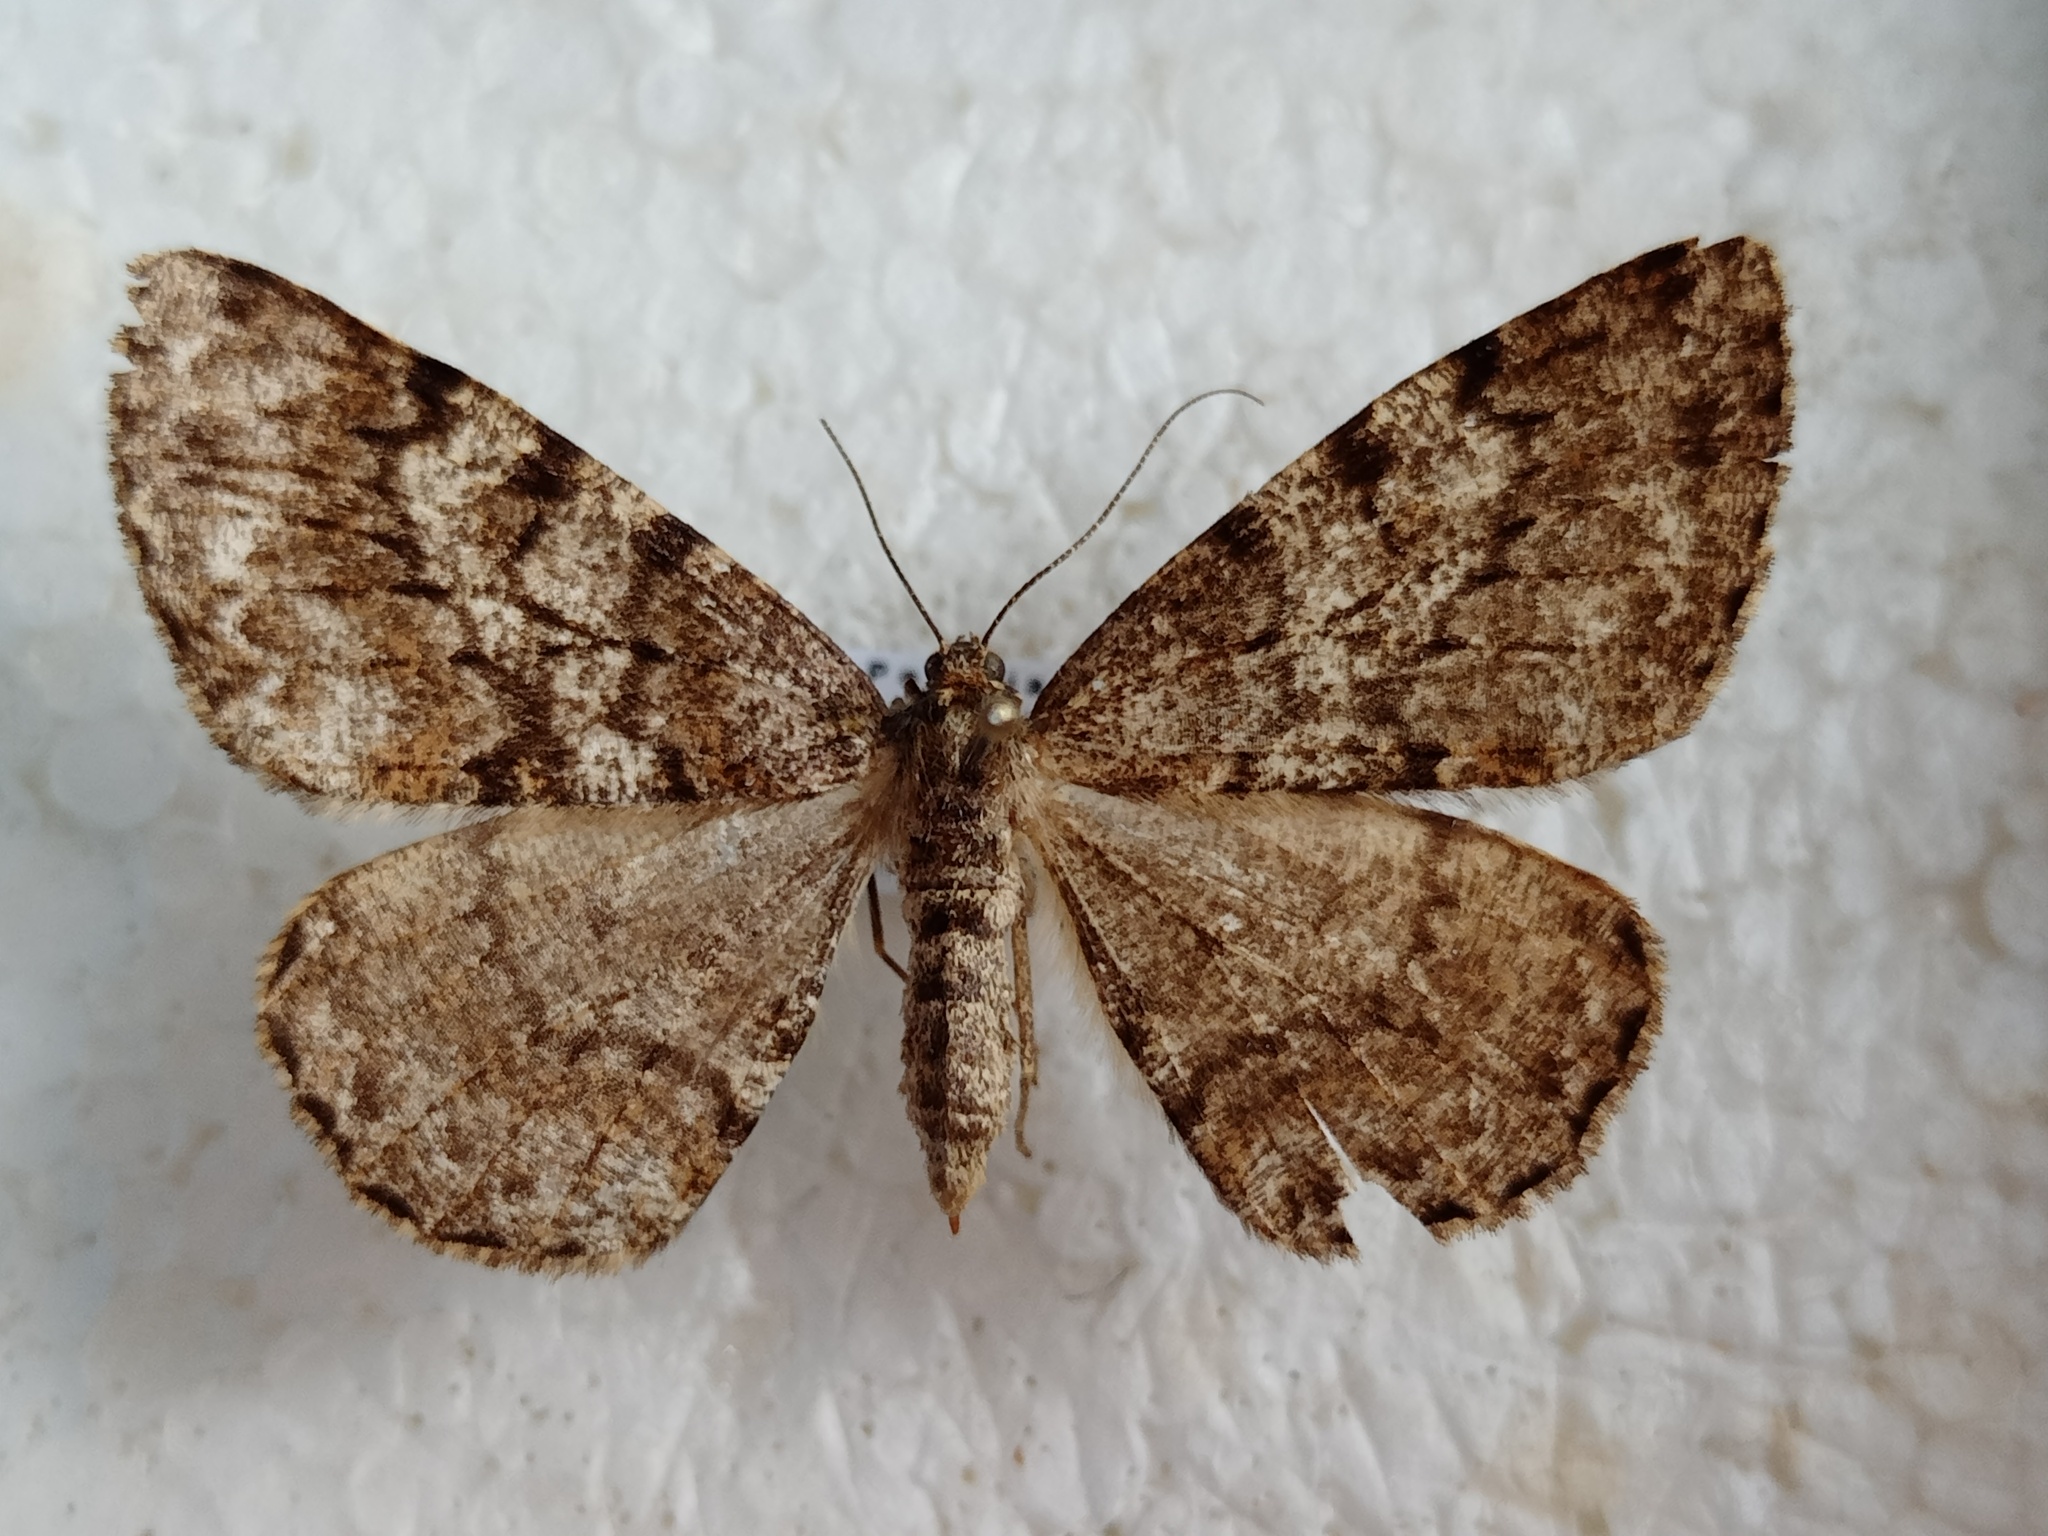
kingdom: Animalia
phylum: Arthropoda
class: Insecta
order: Lepidoptera
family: Geometridae
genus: Deileptenia
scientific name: Deileptenia ribeata
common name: Satin beauty
